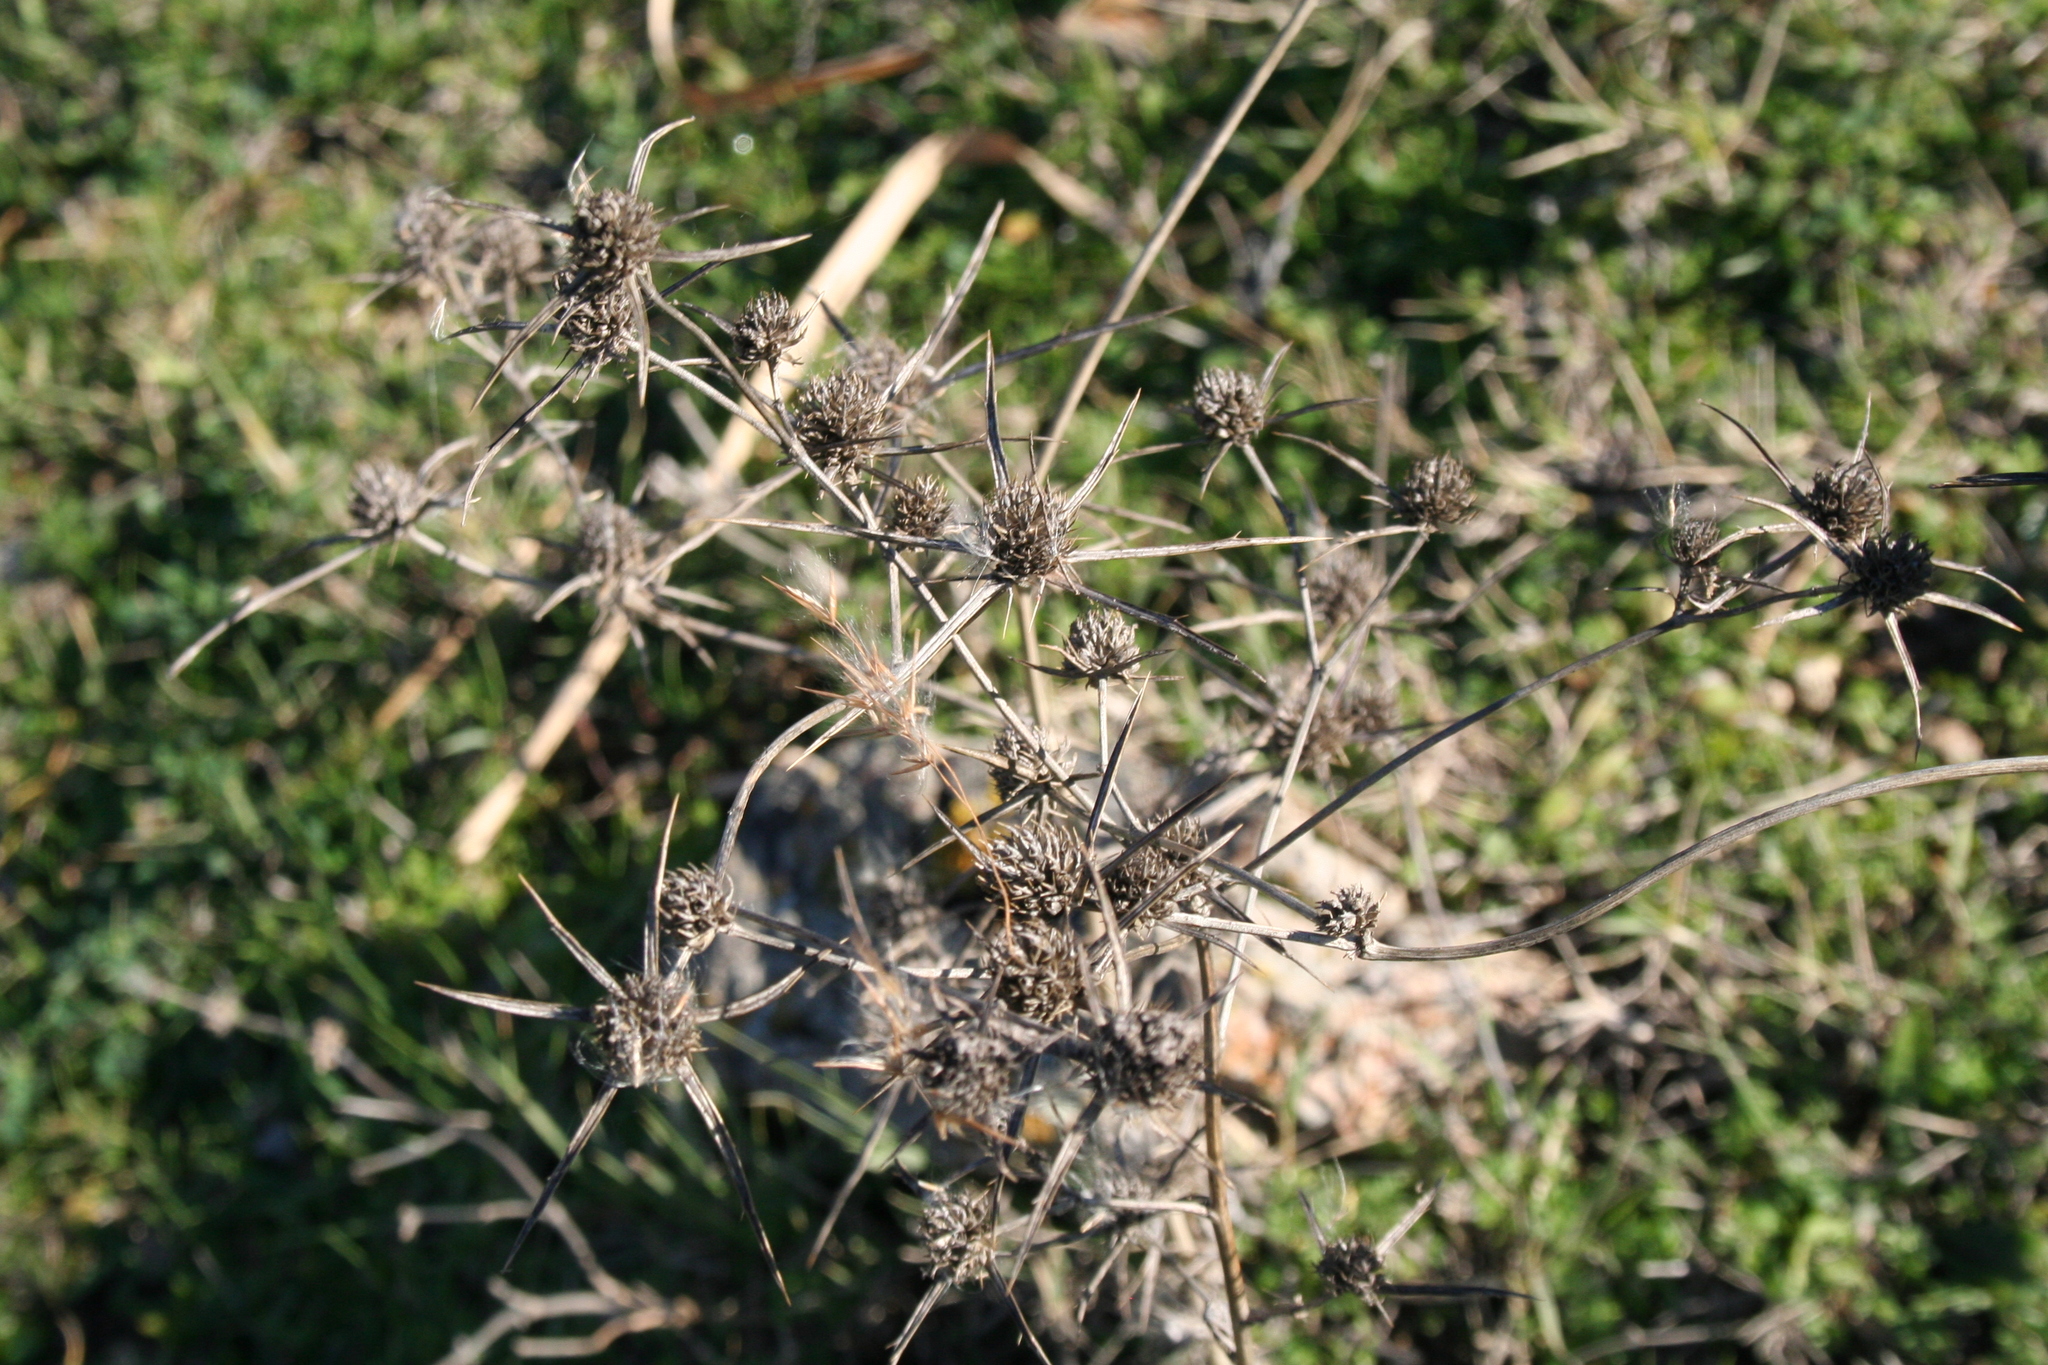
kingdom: Plantae
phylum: Tracheophyta
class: Magnoliopsida
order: Apiales
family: Apiaceae
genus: Eryngium
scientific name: Eryngium campestre
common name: Field eryngo
